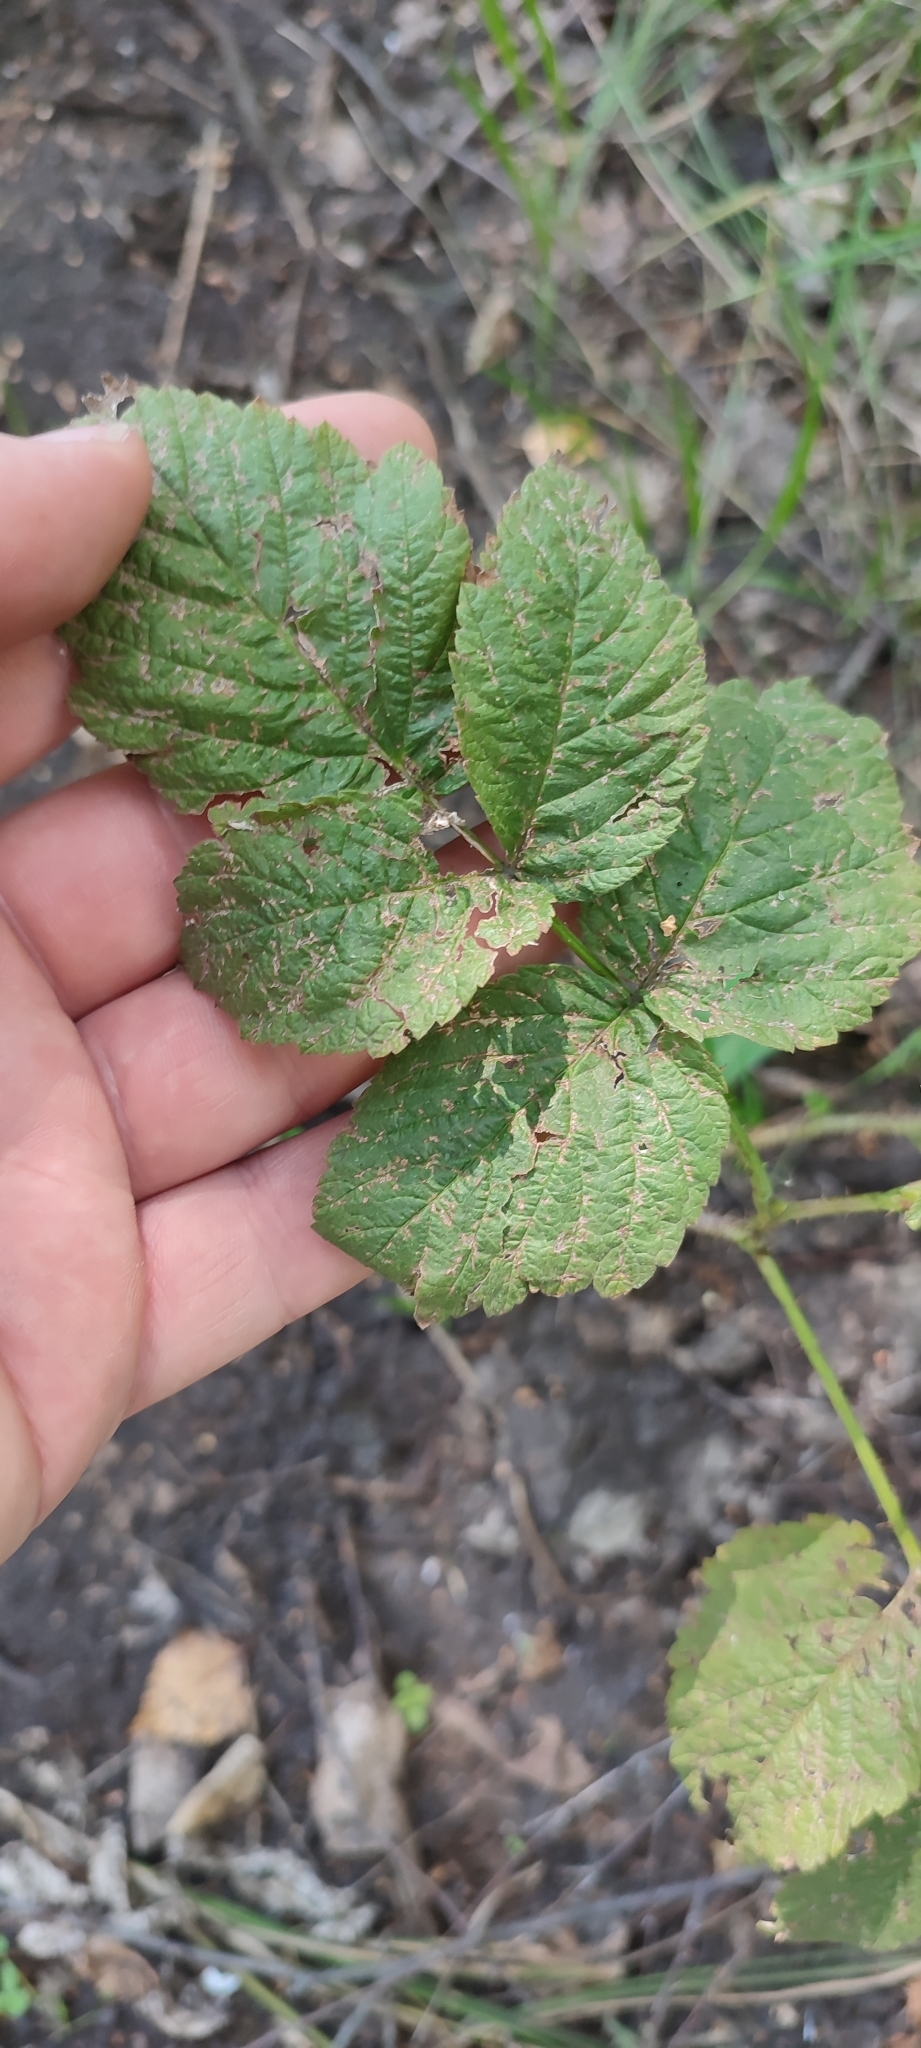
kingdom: Plantae
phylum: Tracheophyta
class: Magnoliopsida
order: Rosales
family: Rosaceae
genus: Rubus
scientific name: Rubus idaeus
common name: Raspberry
